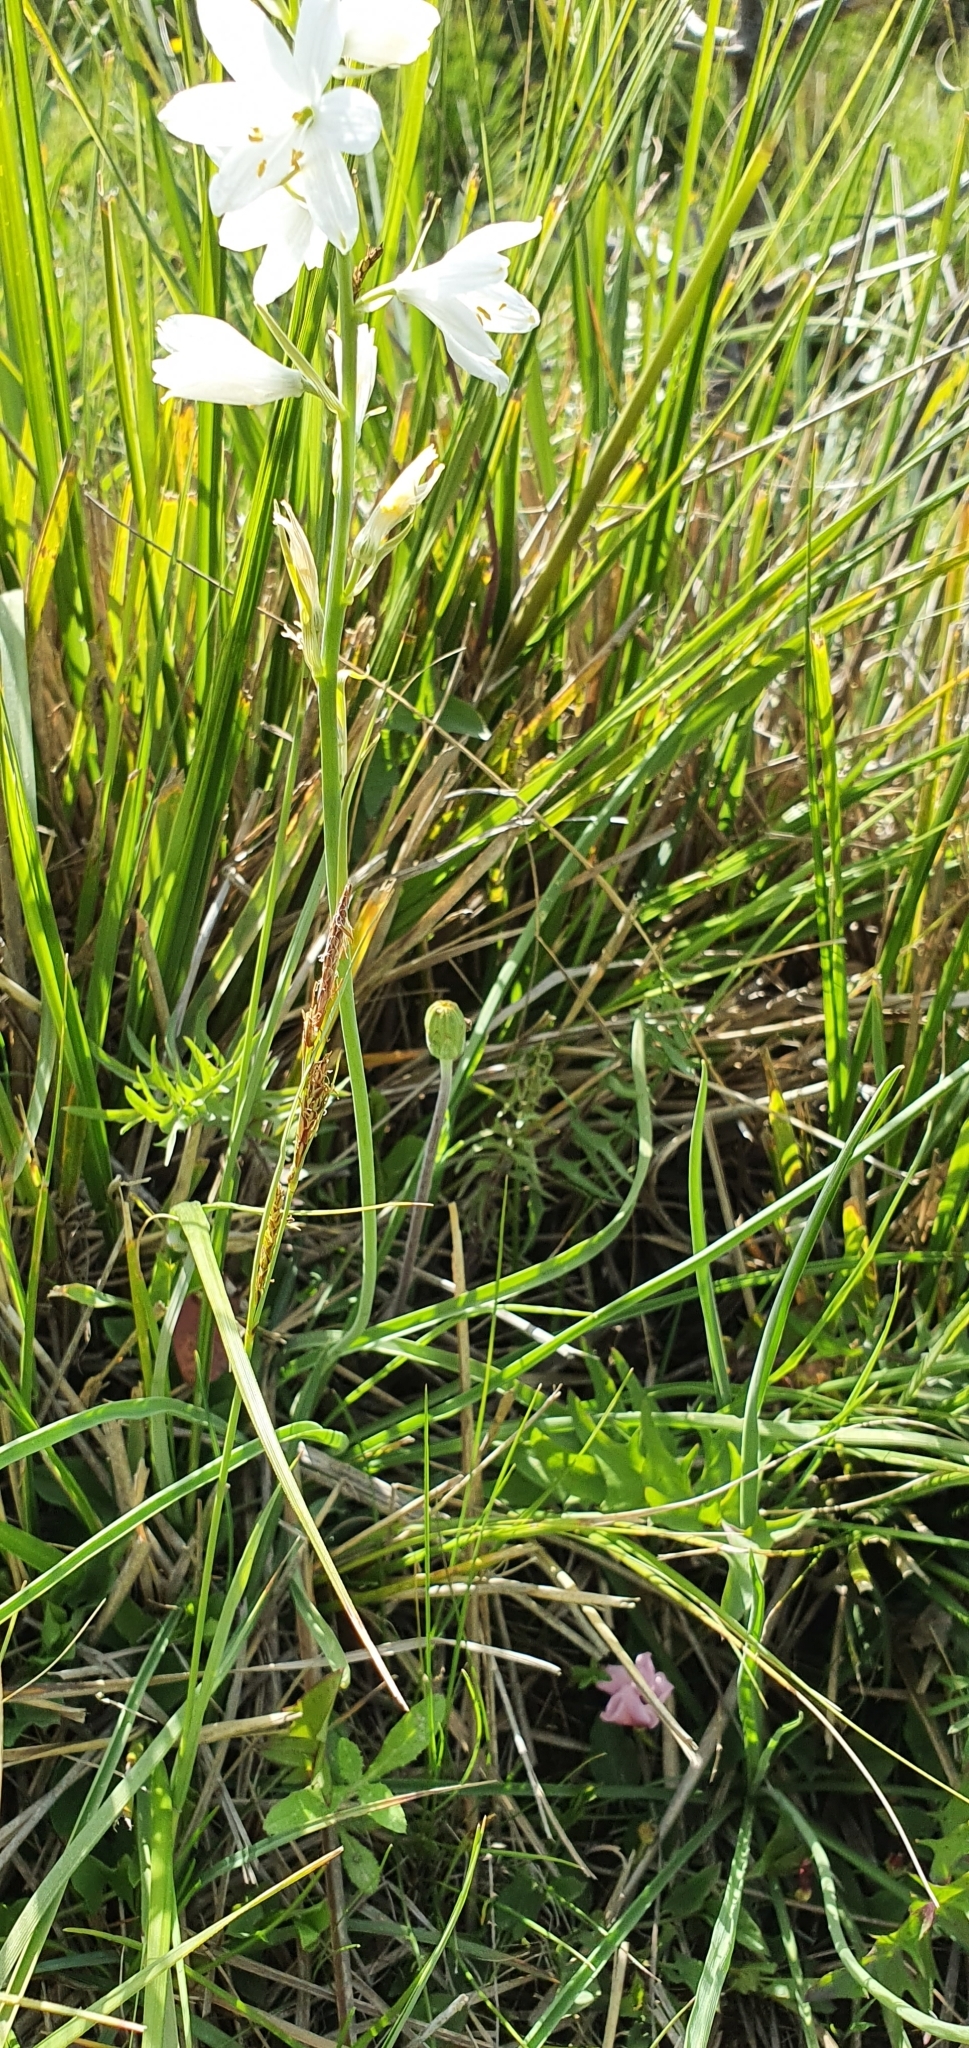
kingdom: Plantae
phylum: Tracheophyta
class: Liliopsida
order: Asparagales
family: Asparagaceae
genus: Anthericum
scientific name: Anthericum baeticum
